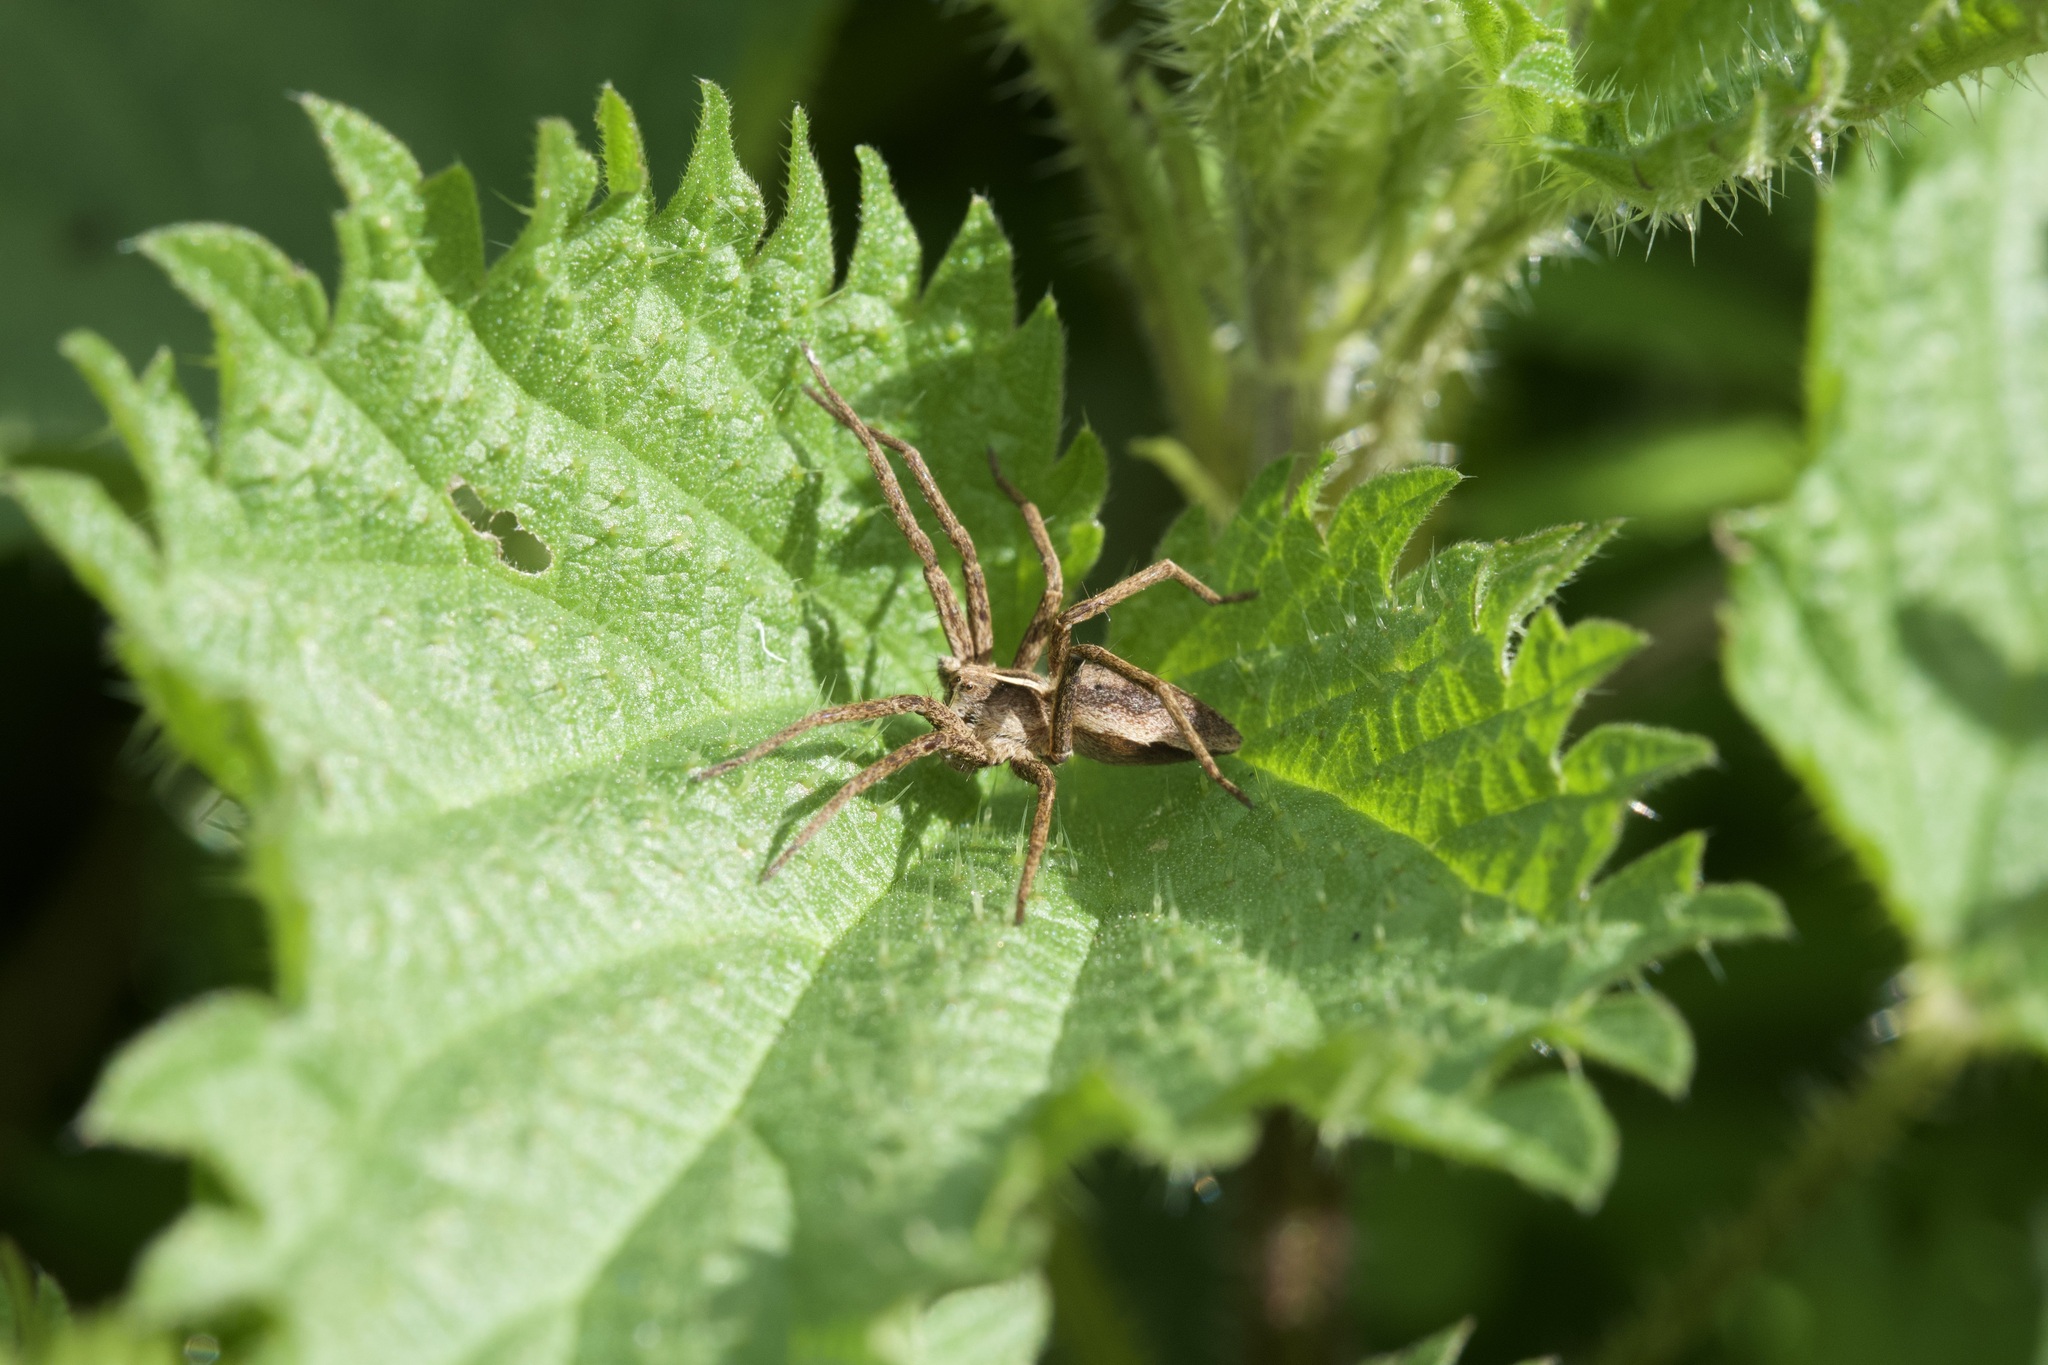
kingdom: Animalia
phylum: Arthropoda
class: Arachnida
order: Araneae
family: Pisauridae
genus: Pisaura
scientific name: Pisaura mirabilis
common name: Tent spider
